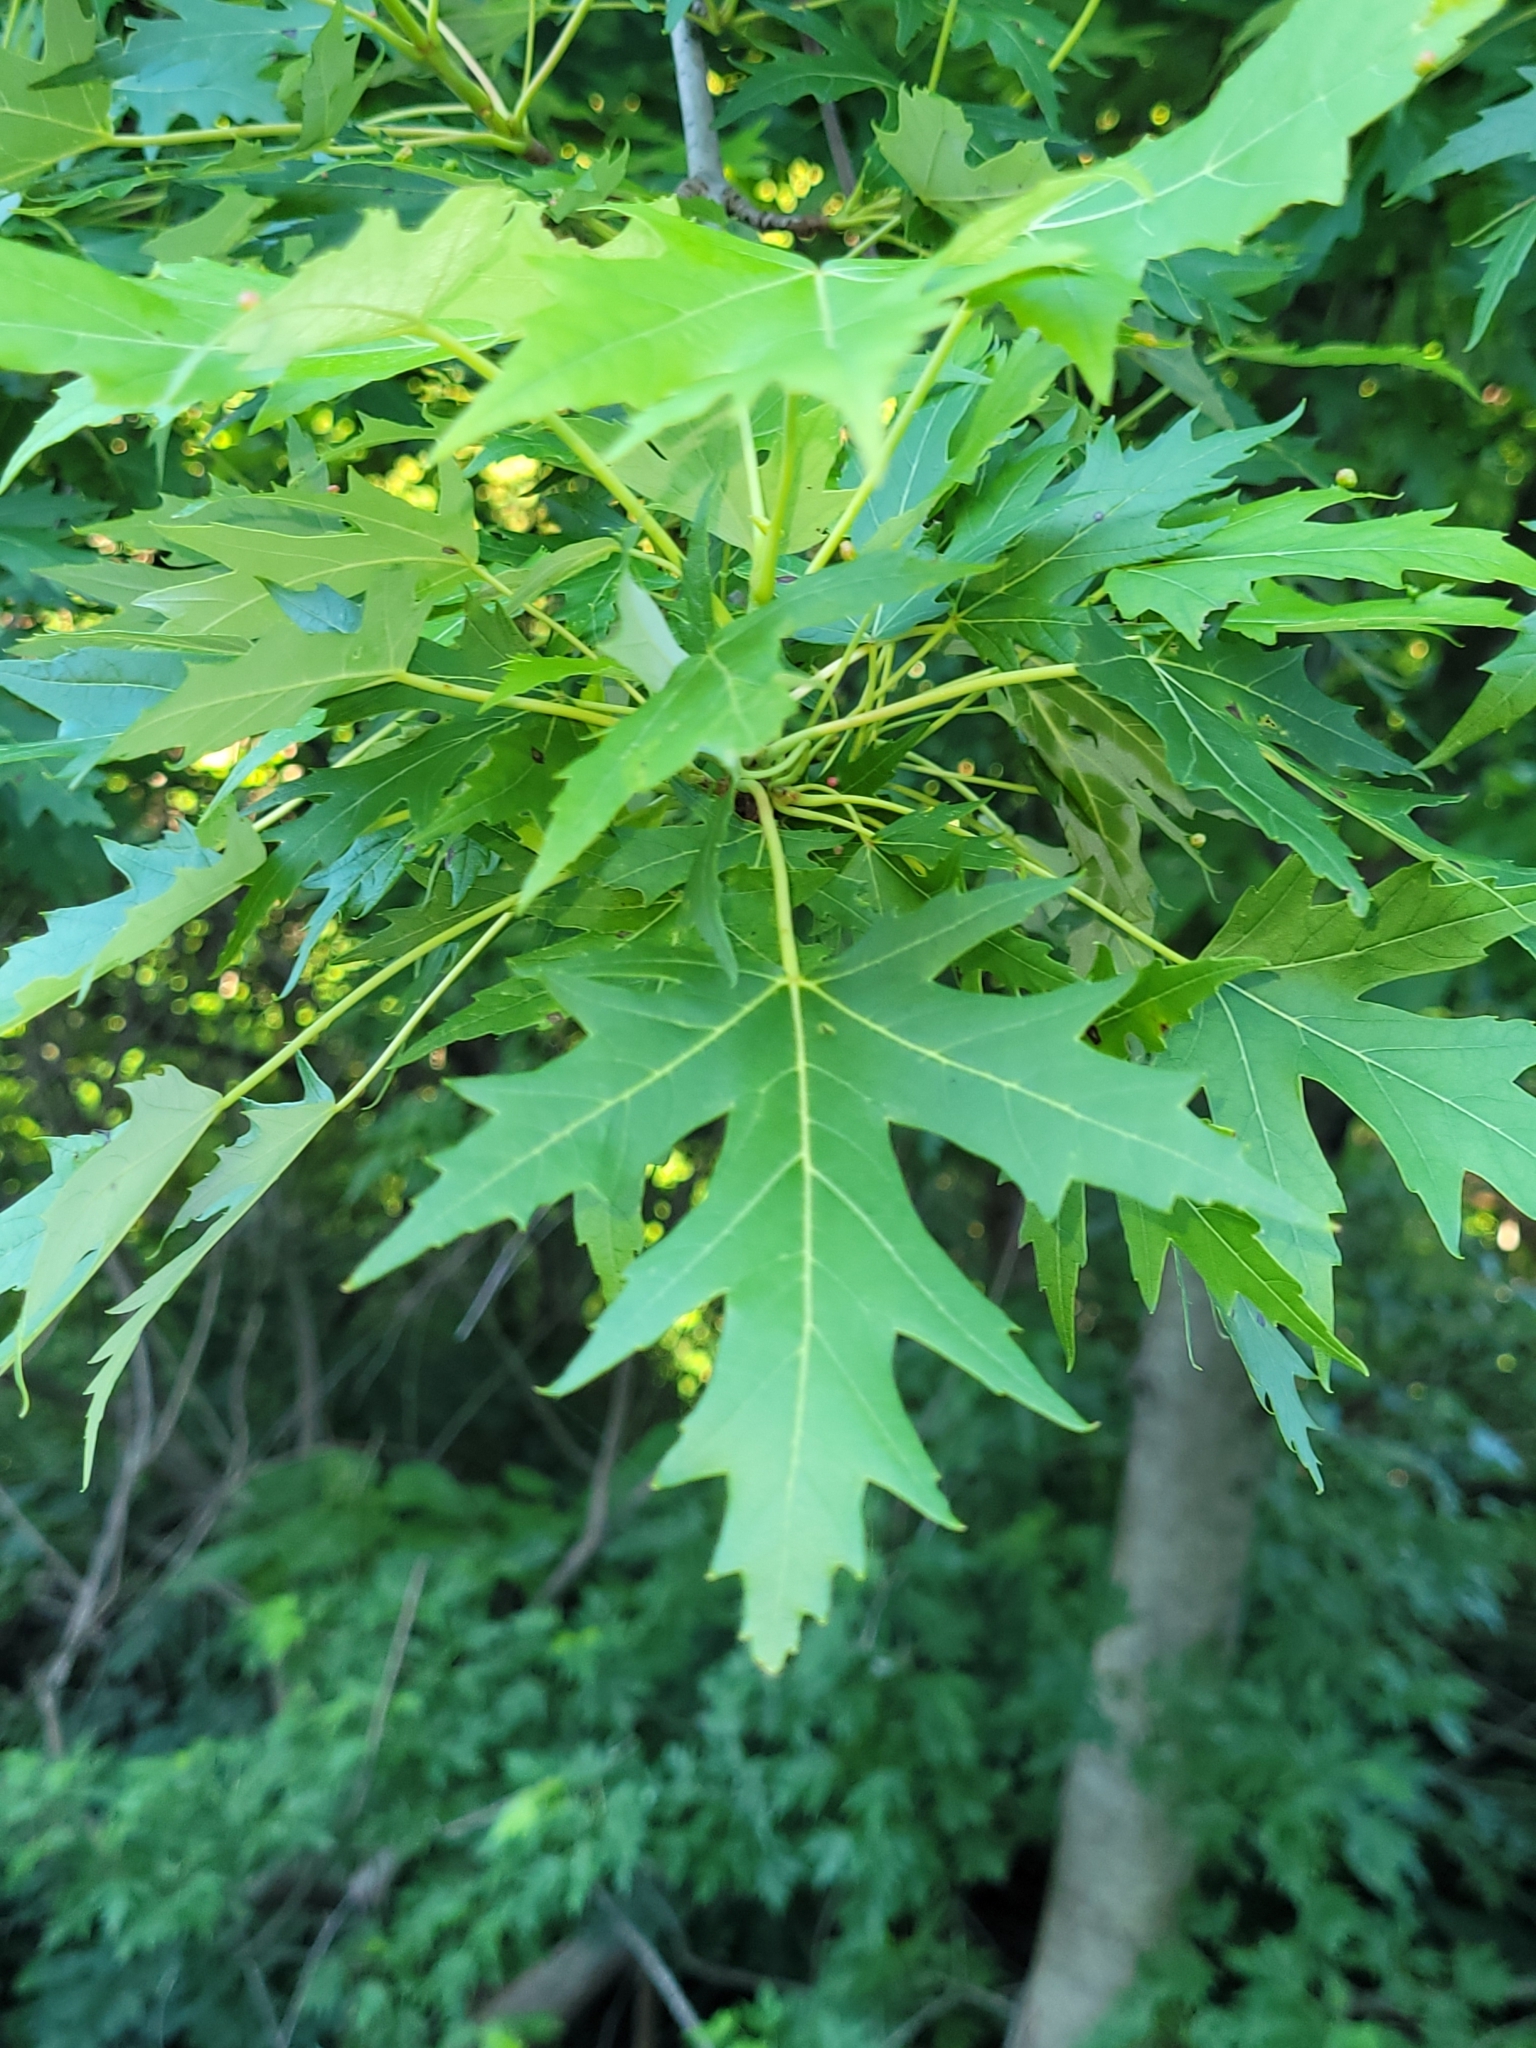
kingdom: Plantae
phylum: Tracheophyta
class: Magnoliopsida
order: Sapindales
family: Sapindaceae
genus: Acer
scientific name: Acer saccharinum
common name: Silver maple
